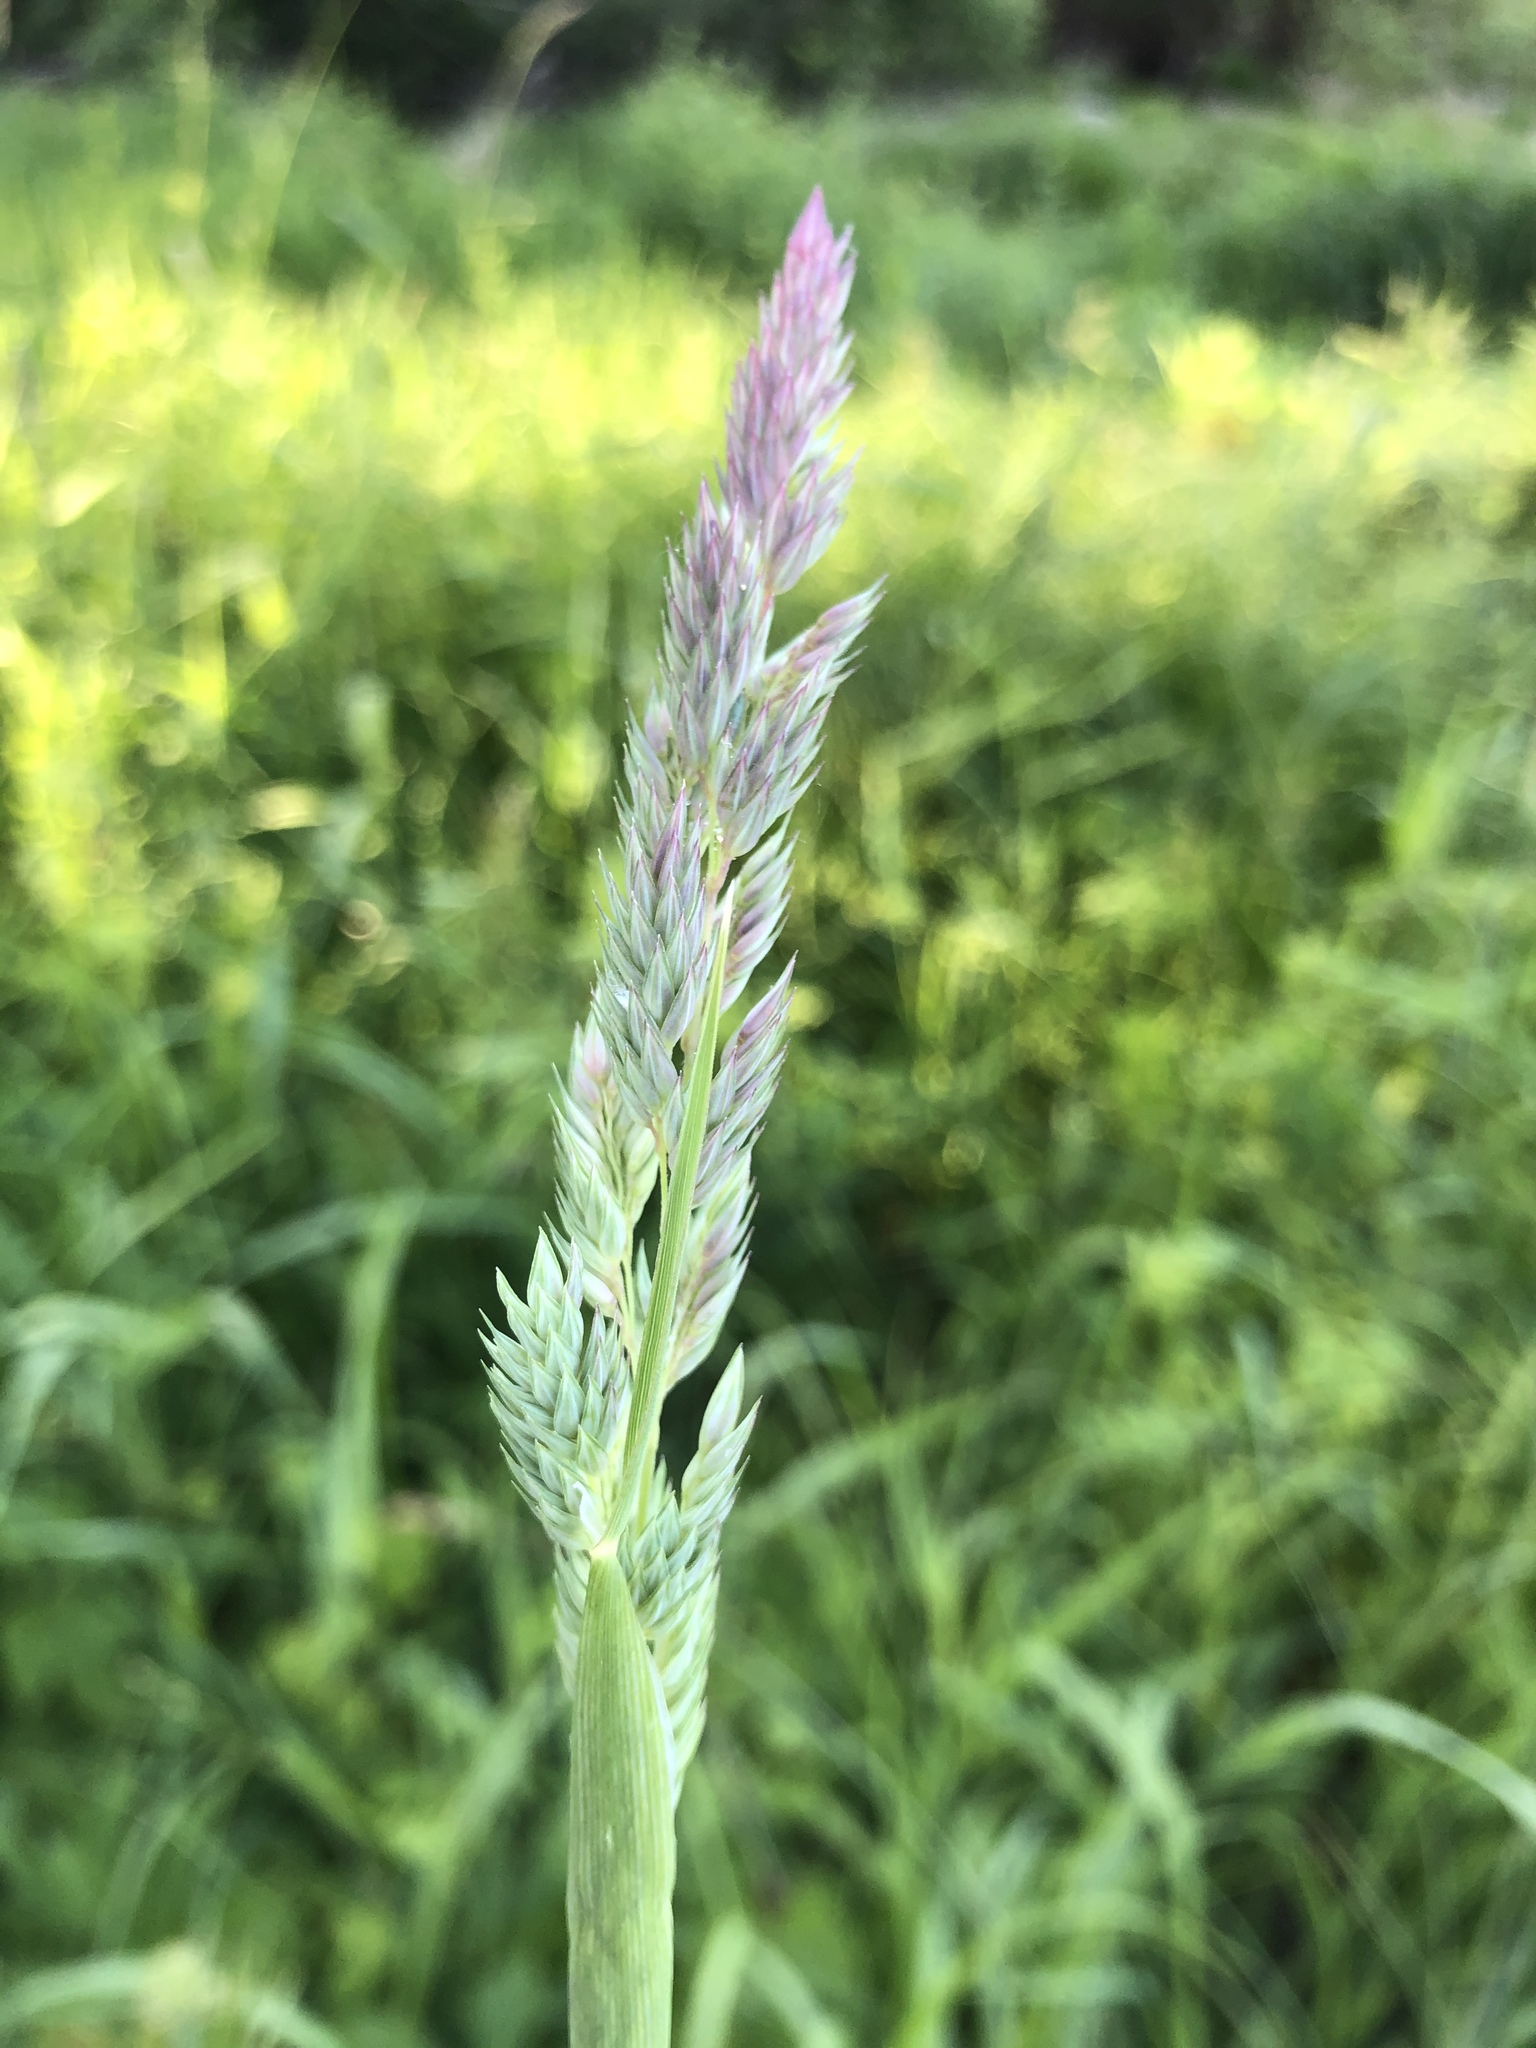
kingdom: Plantae
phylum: Tracheophyta
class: Liliopsida
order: Poales
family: Poaceae
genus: Phalaris
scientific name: Phalaris arundinacea
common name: Reed canary-grass
